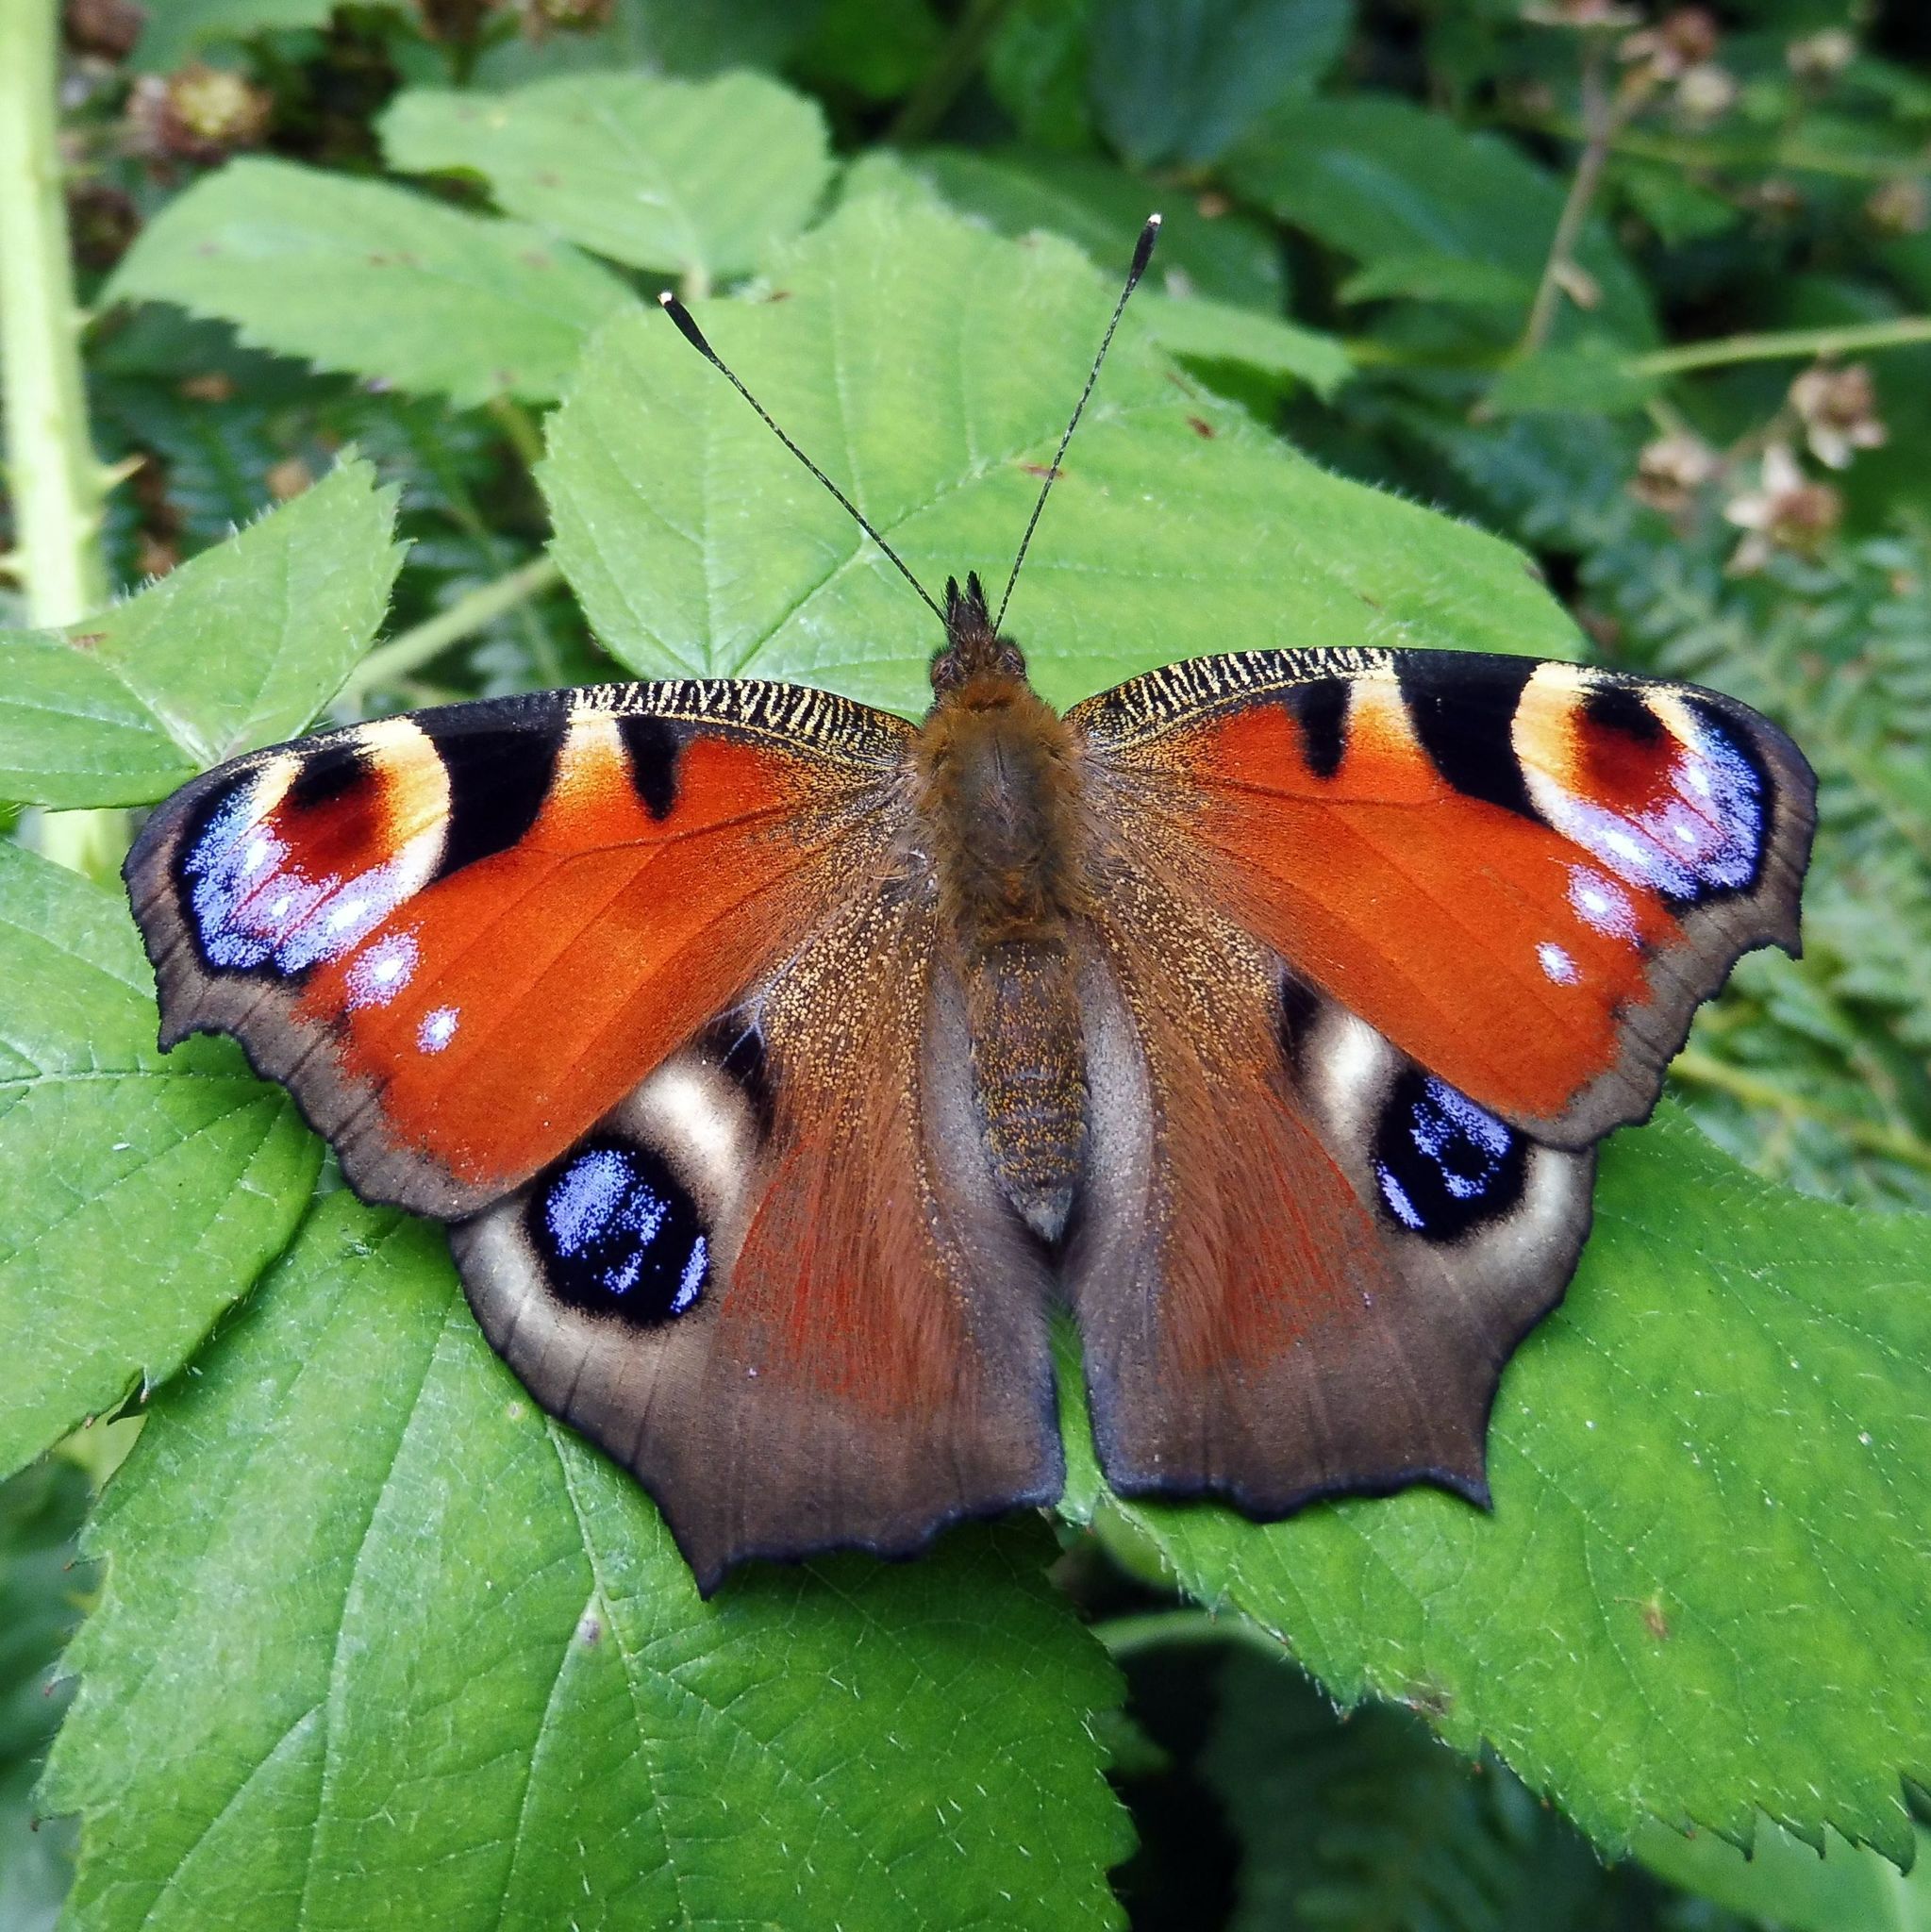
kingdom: Animalia
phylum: Arthropoda
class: Insecta
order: Lepidoptera
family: Nymphalidae
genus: Aglais
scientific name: Aglais io
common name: Peacock
